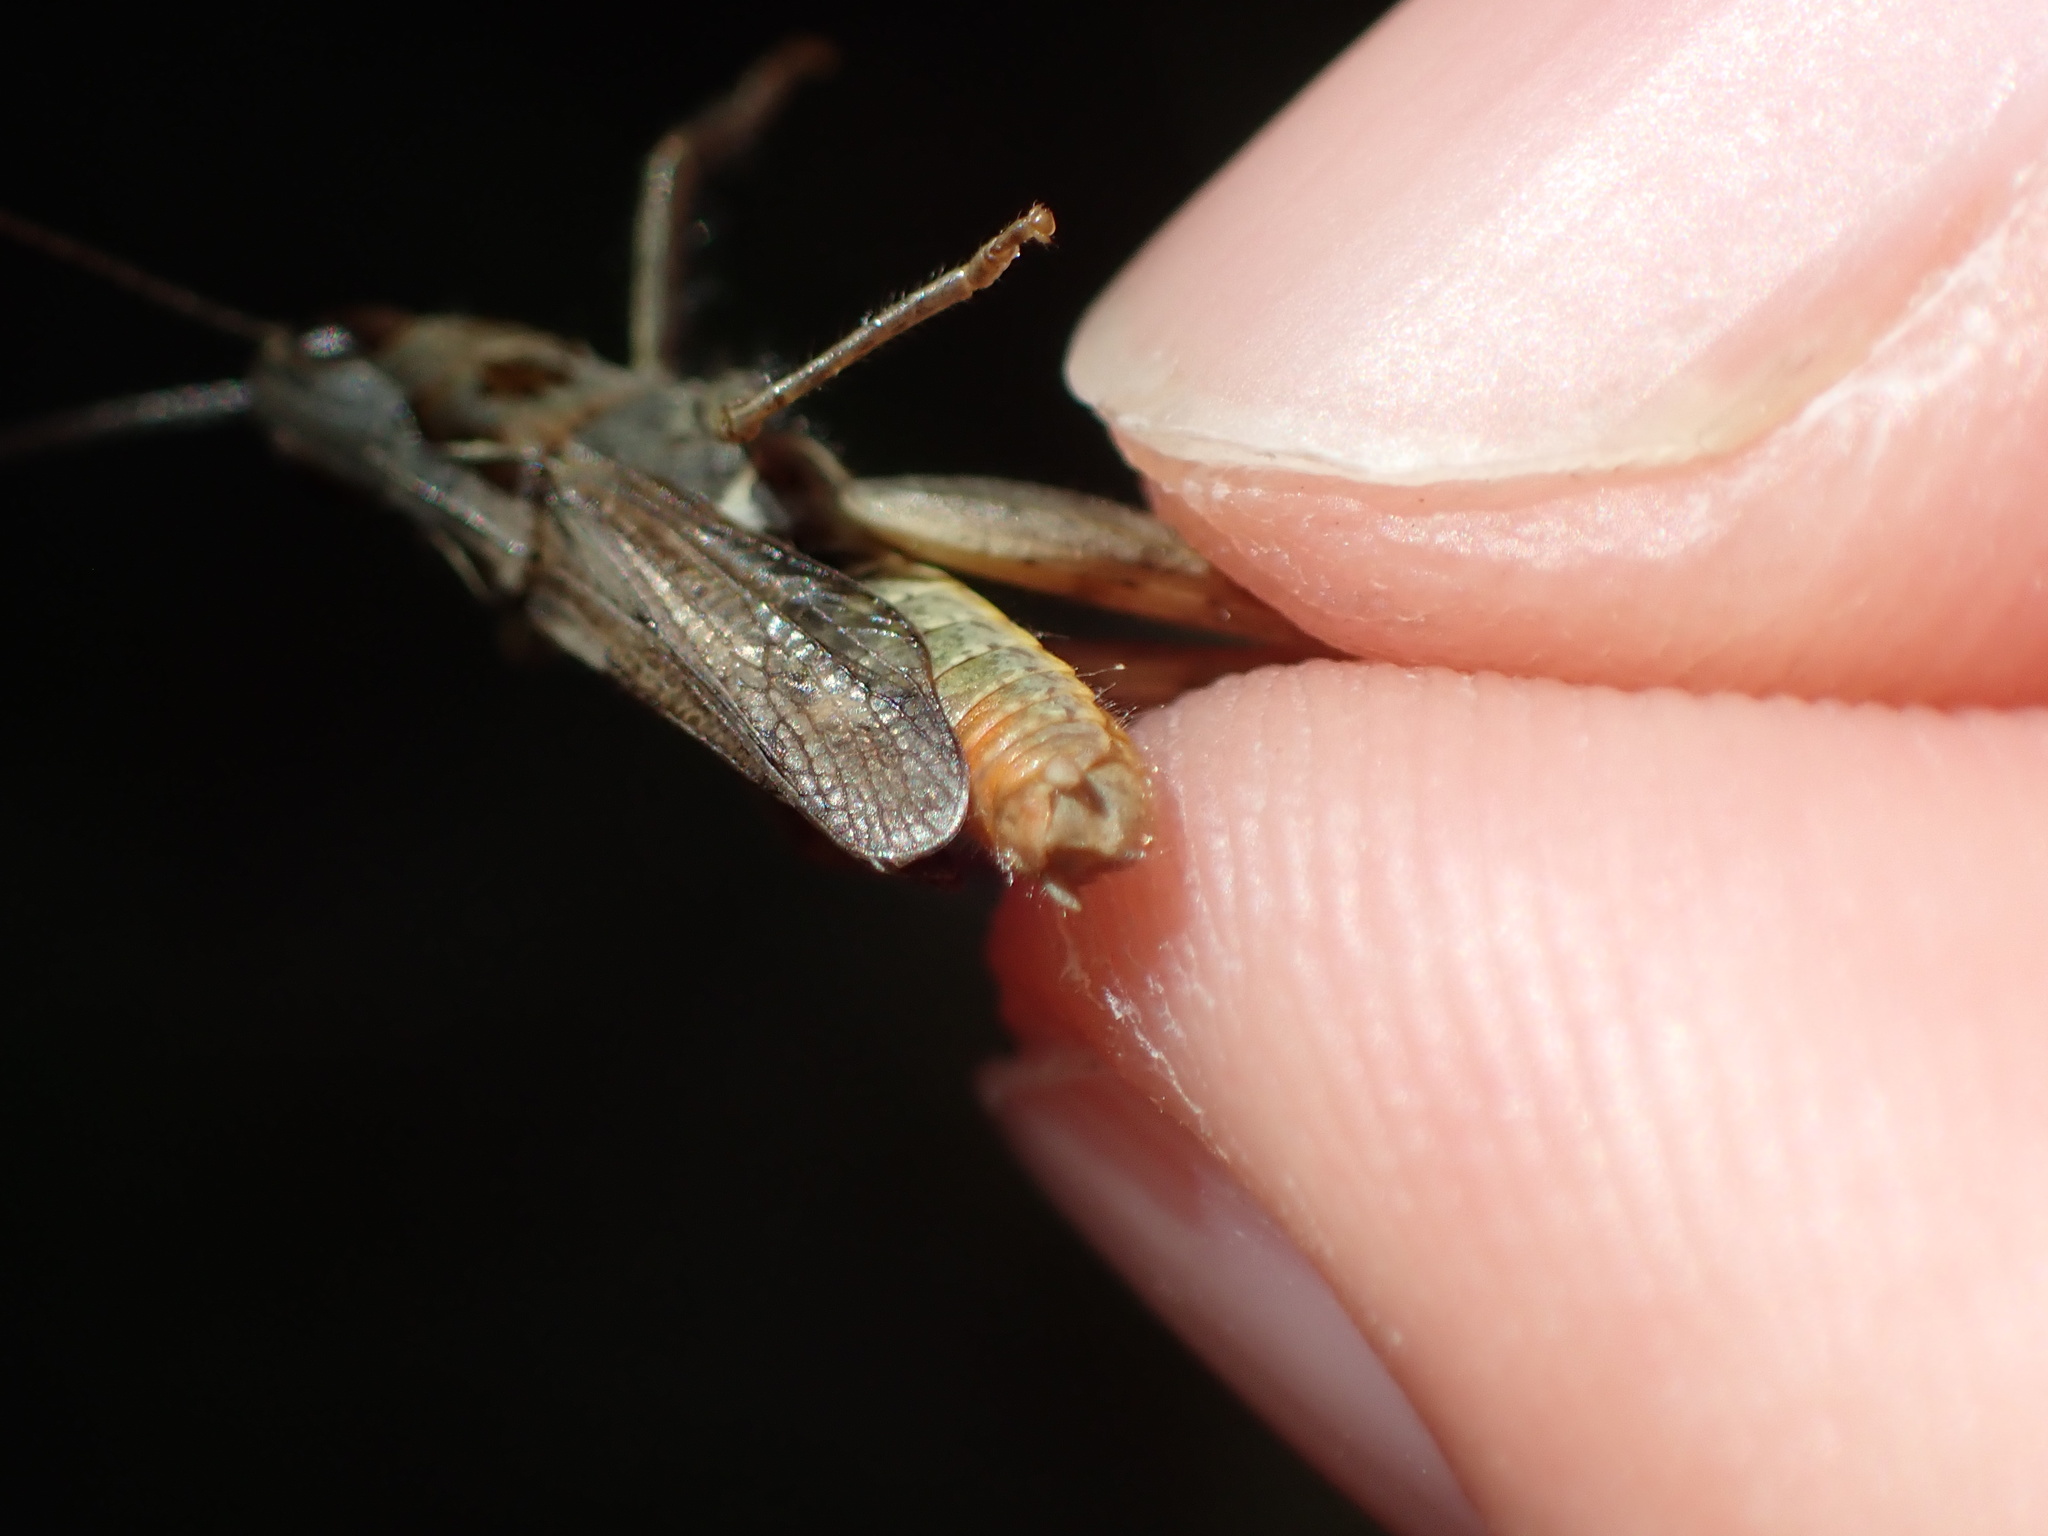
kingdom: Animalia
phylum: Arthropoda
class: Insecta
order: Orthoptera
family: Acrididae
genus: Chorthippus
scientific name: Chorthippus biguttulus
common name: Bow-winged grasshopper
